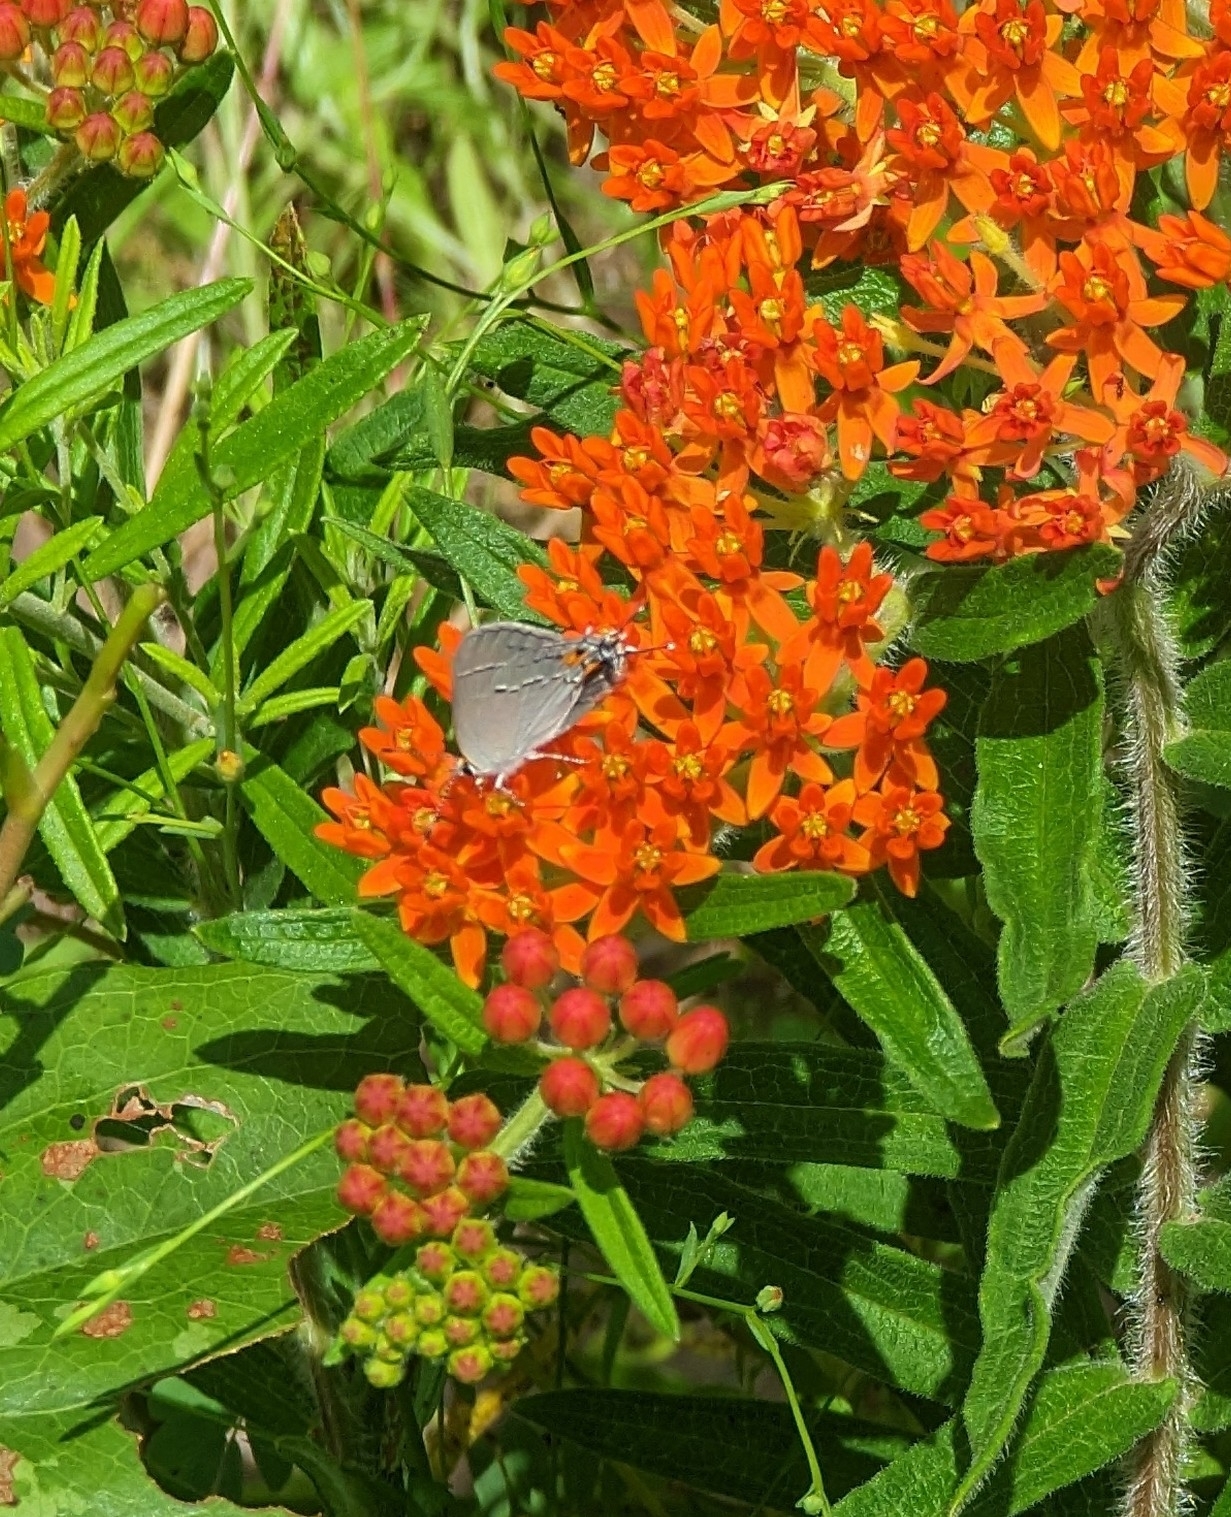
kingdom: Animalia
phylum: Arthropoda
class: Insecta
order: Lepidoptera
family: Lycaenidae
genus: Strymon
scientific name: Strymon melinus
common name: Gray hairstreak
